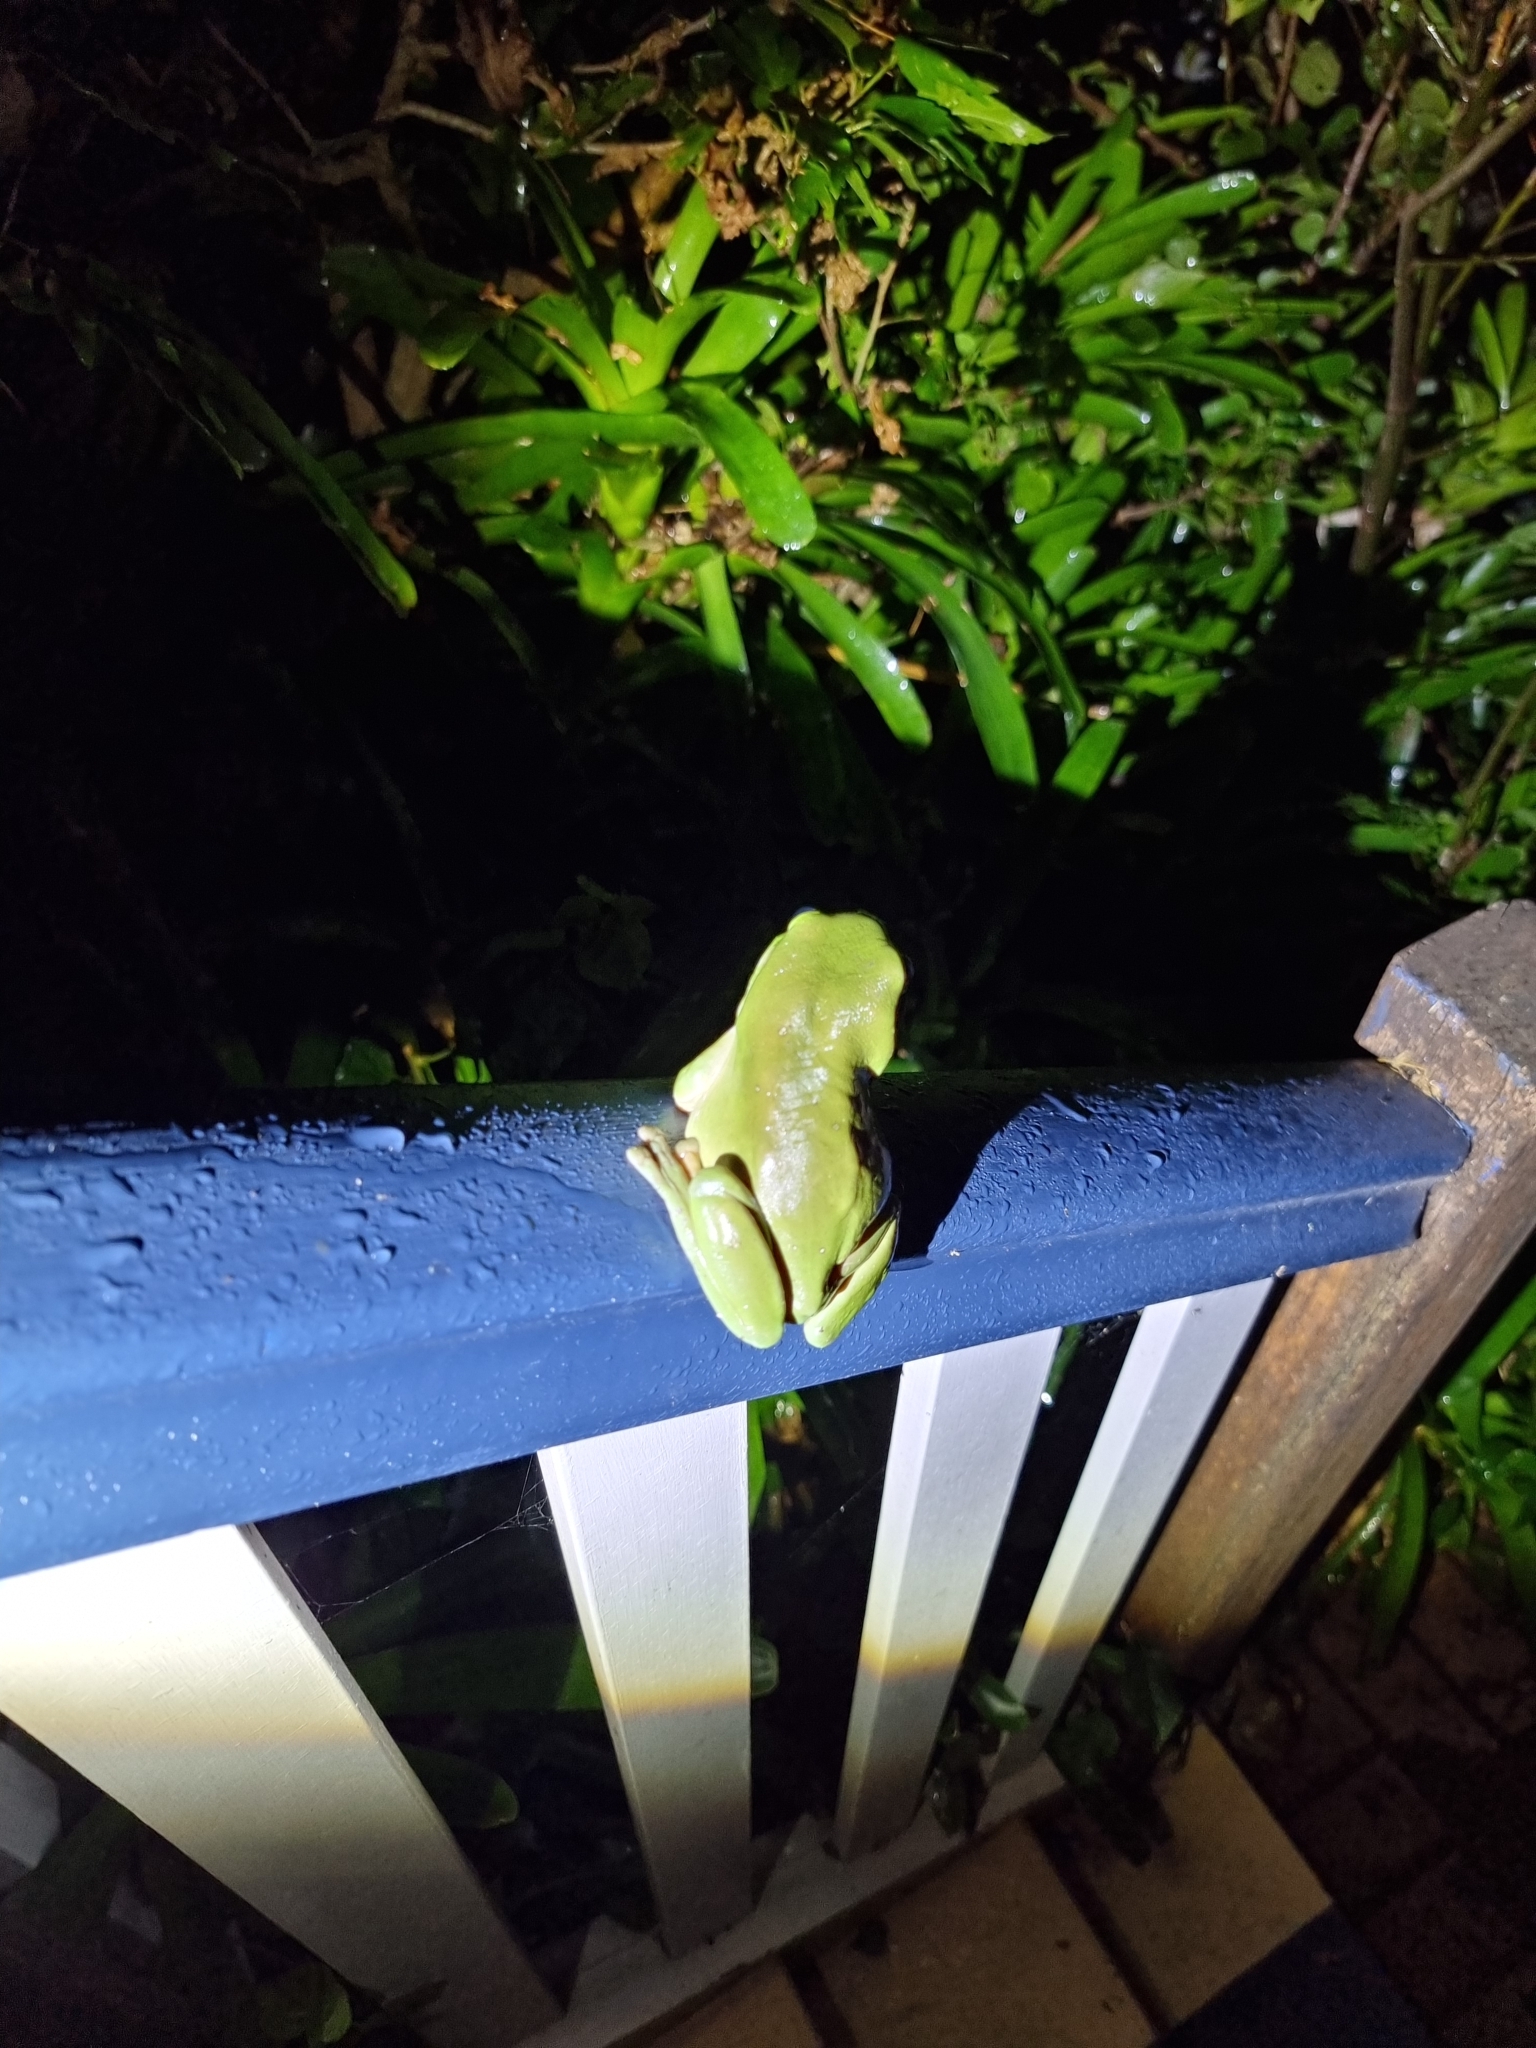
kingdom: Animalia
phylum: Chordata
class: Amphibia
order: Anura
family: Pelodryadidae
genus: Ranoidea
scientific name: Ranoidea caerulea
